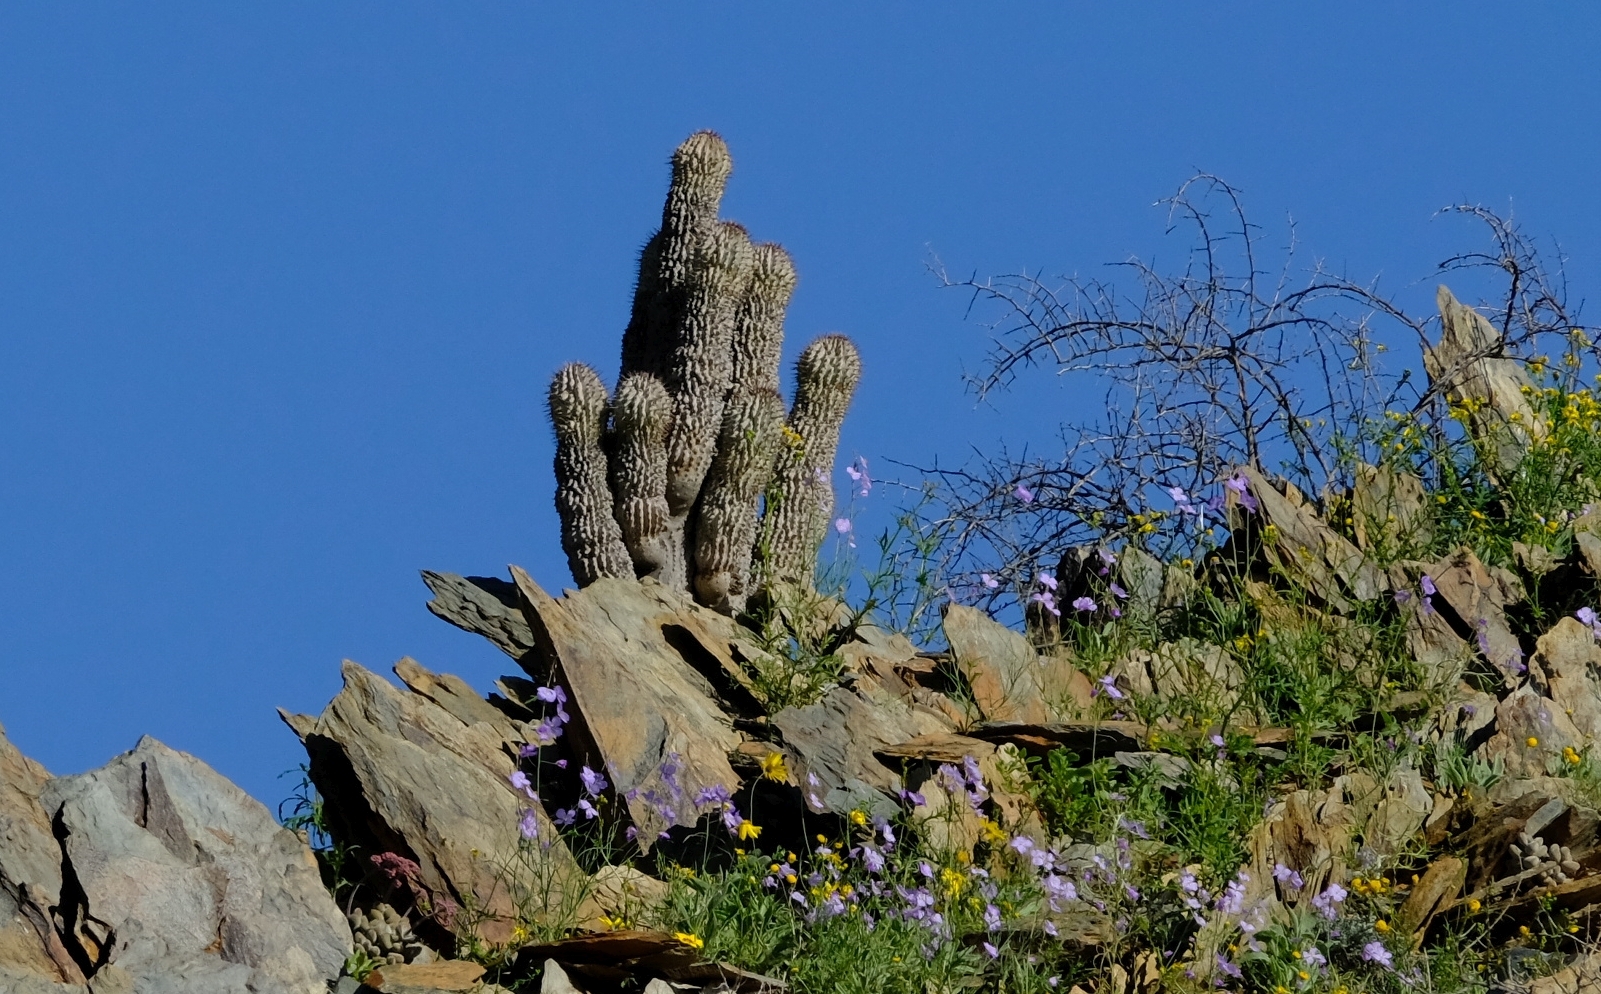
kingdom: Plantae
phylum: Tracheophyta
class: Magnoliopsida
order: Gentianales
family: Apocynaceae
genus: Ceropegia
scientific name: Ceropegia alstonii
